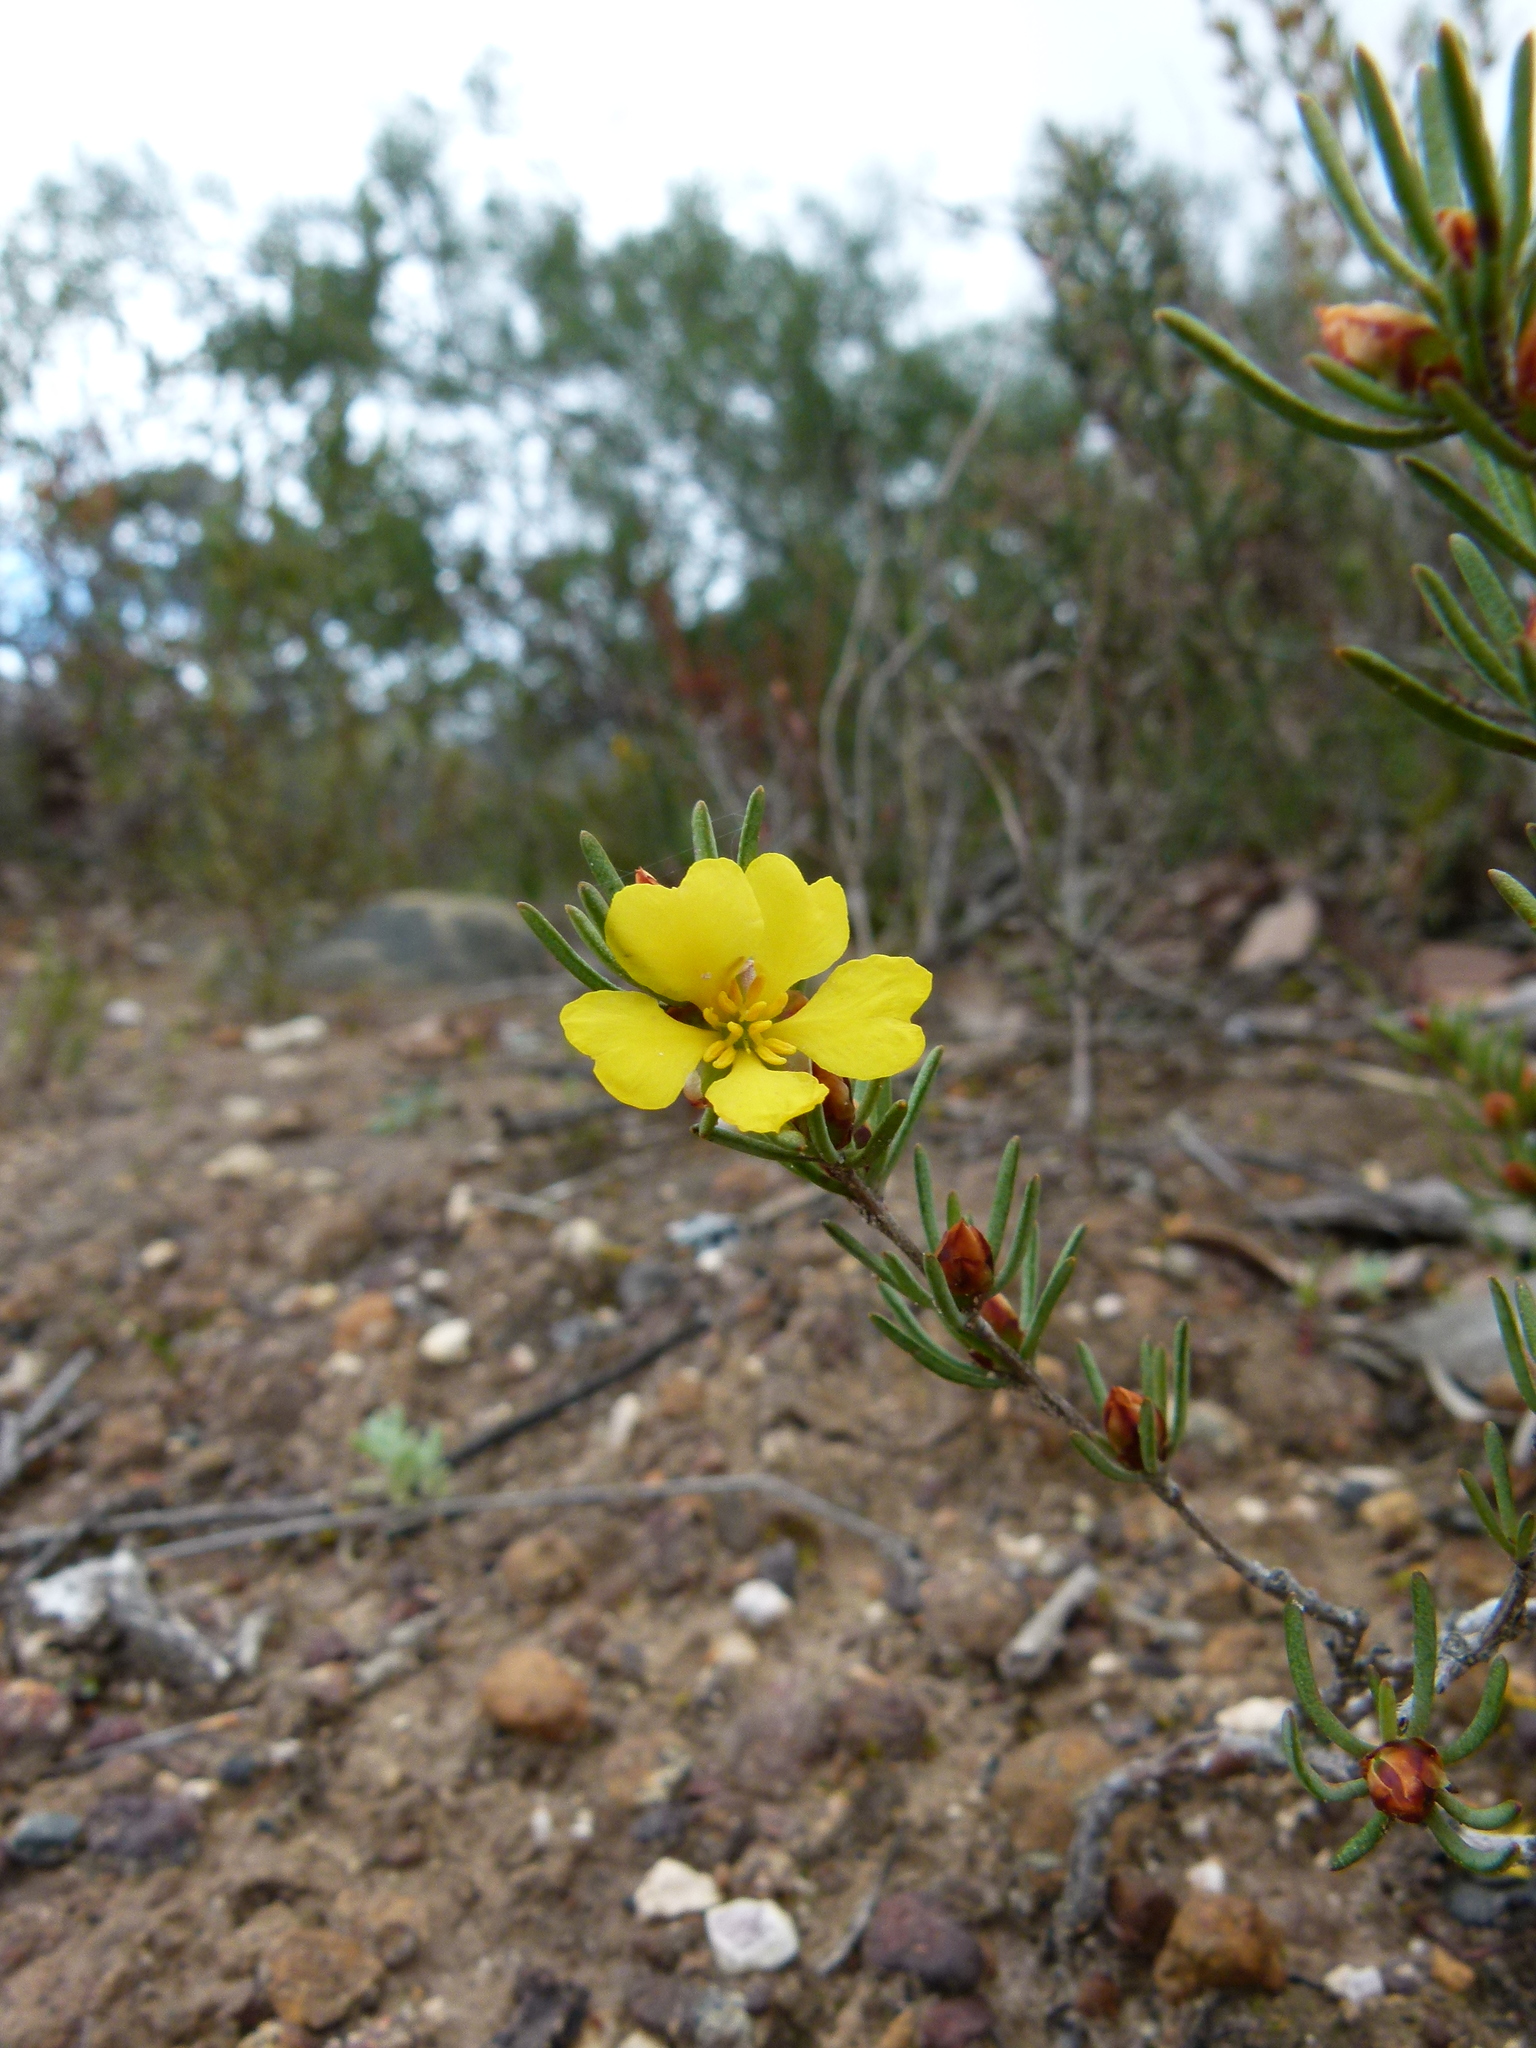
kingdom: Plantae
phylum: Tracheophyta
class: Magnoliopsida
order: Dilleniales
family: Dilleniaceae
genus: Hibbertia
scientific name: Hibbertia pulchra
